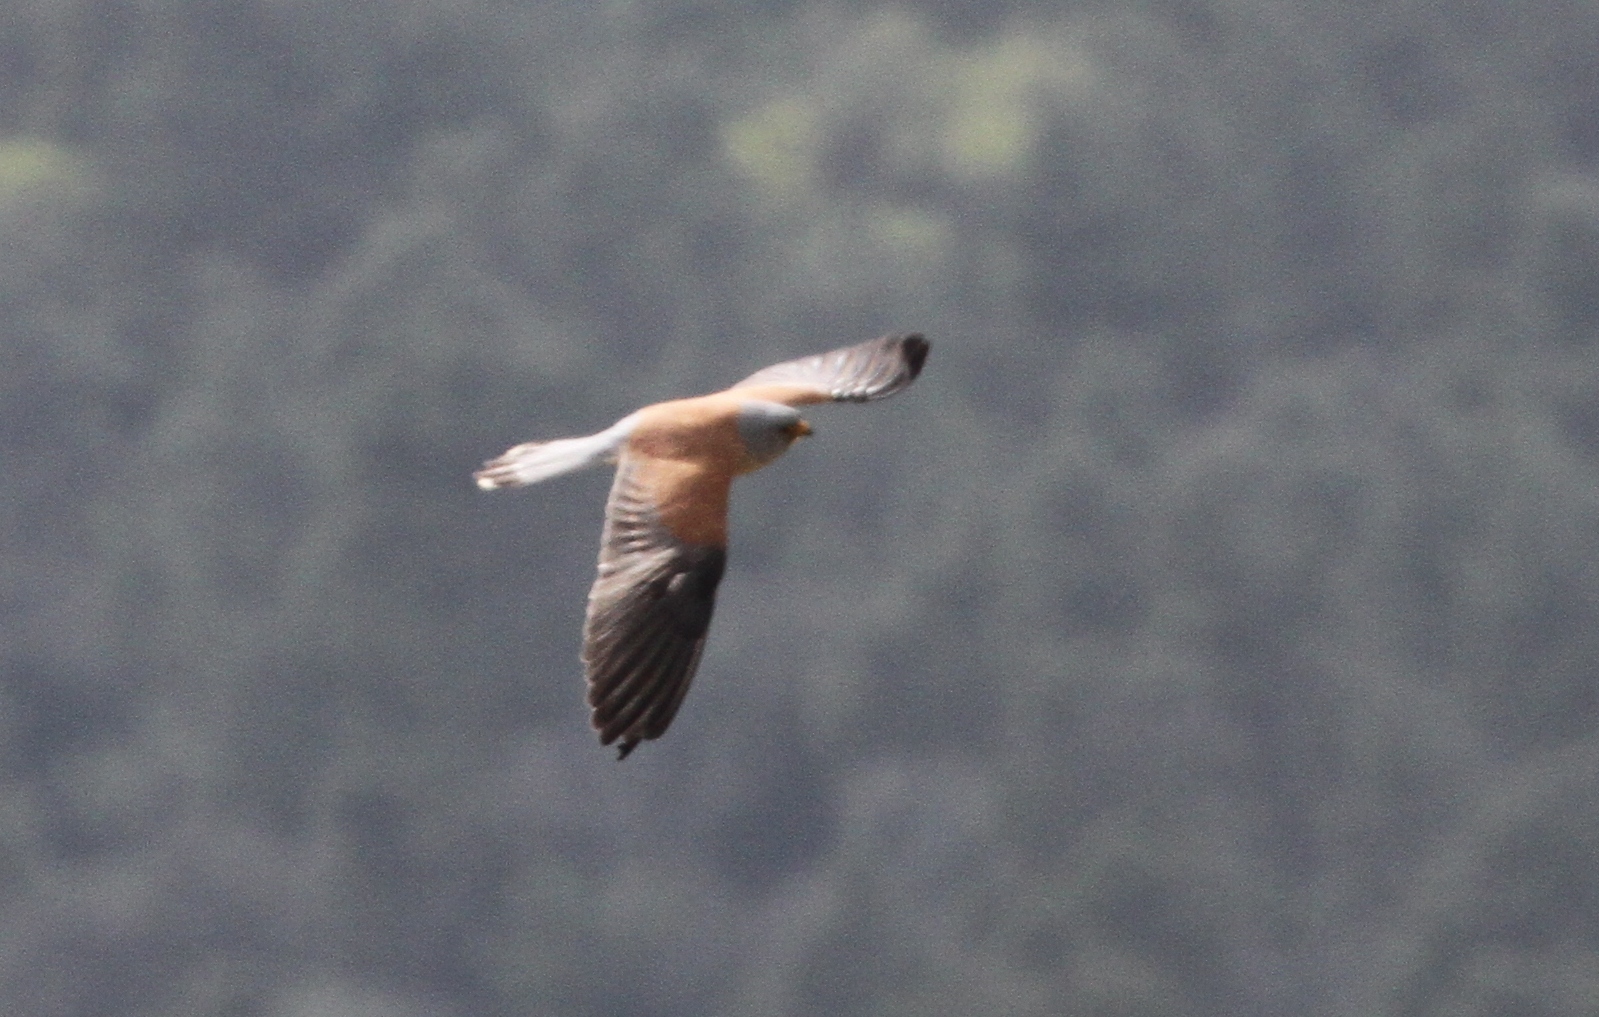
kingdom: Animalia
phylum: Chordata
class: Aves
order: Falconiformes
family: Falconidae
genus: Falco
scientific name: Falco naumanni
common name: Lesser kestrel
